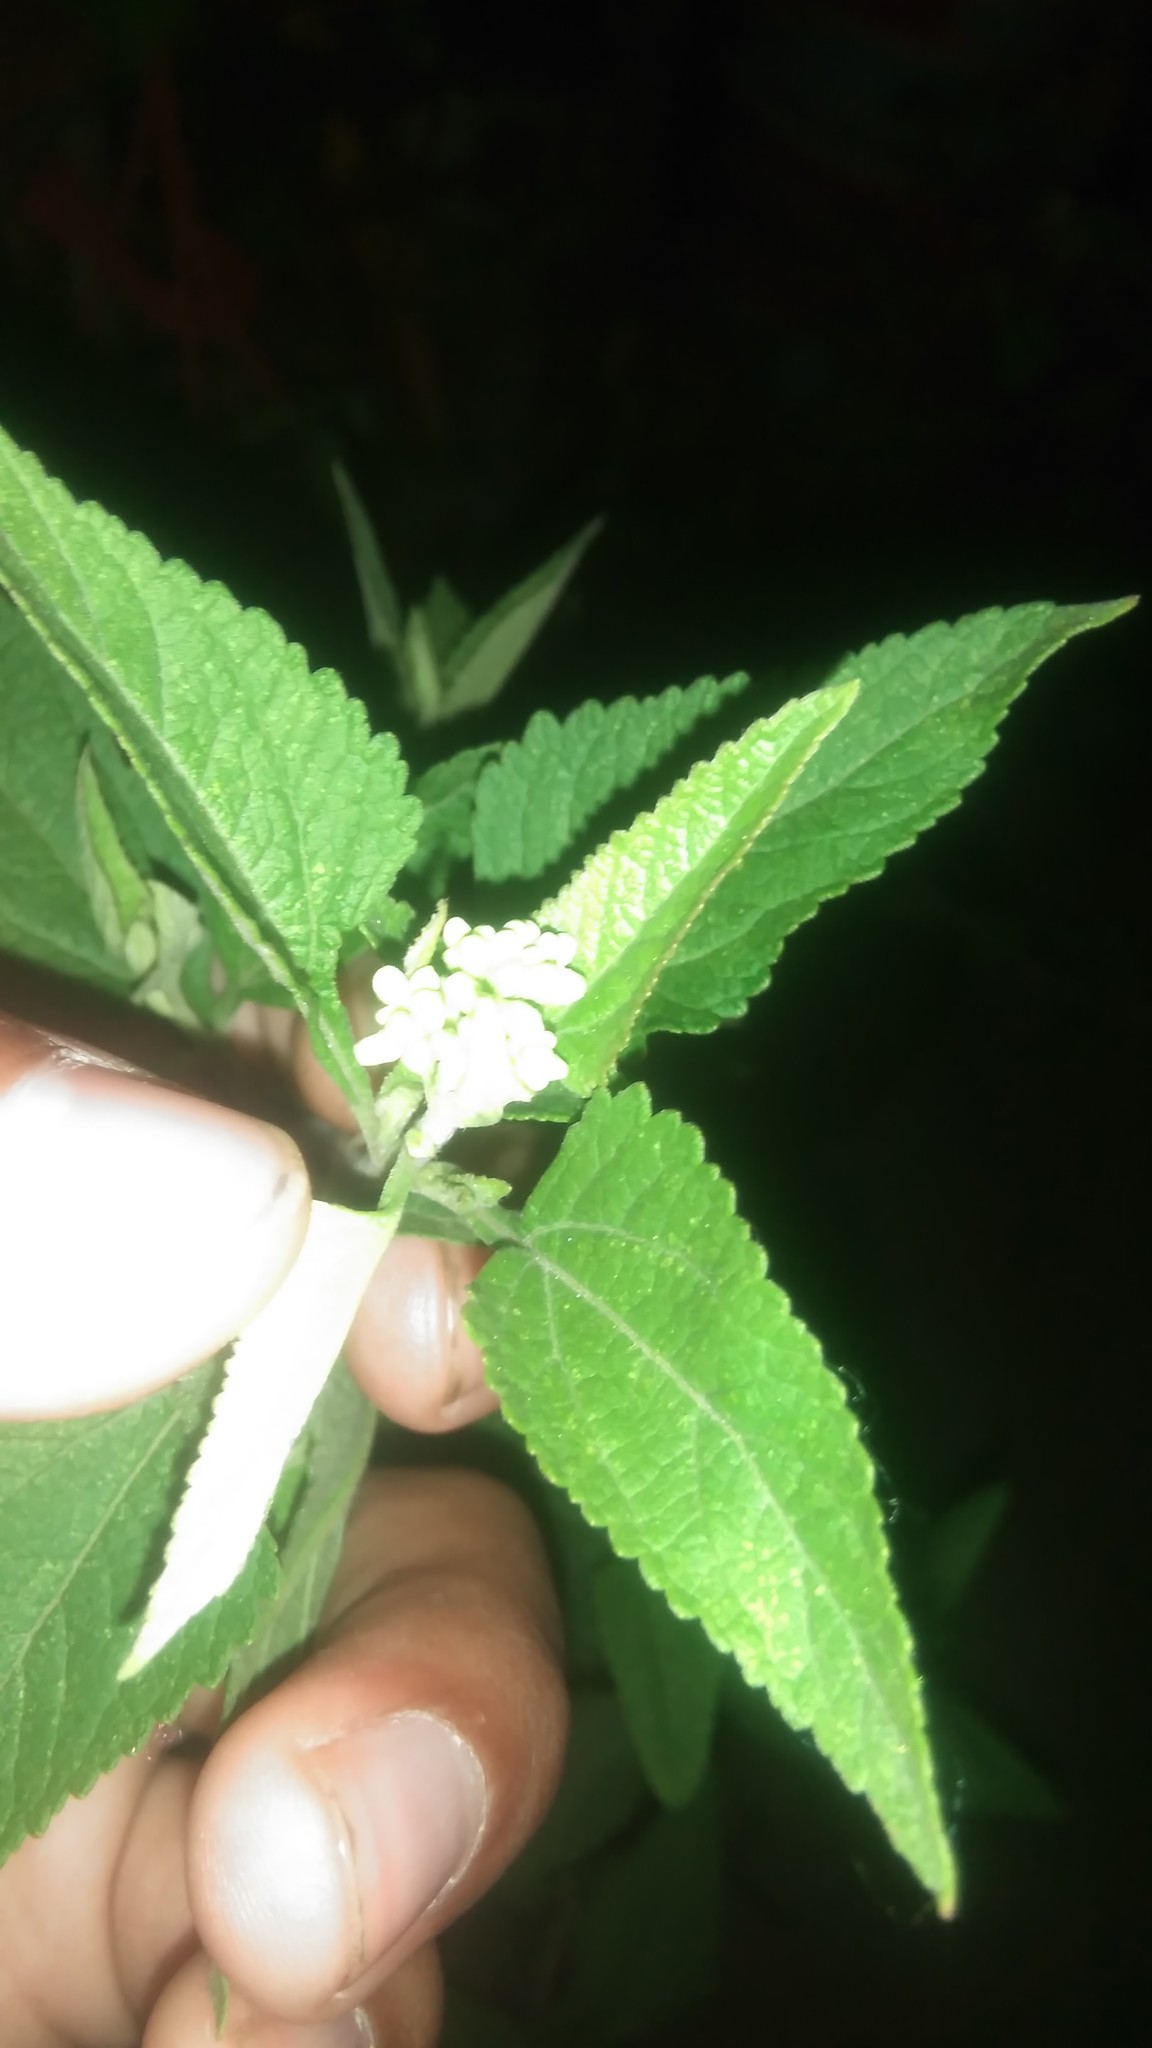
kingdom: Plantae
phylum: Tracheophyta
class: Magnoliopsida
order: Asterales
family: Asteraceae
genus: Austroeupatorium
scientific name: Austroeupatorium inulifolium
